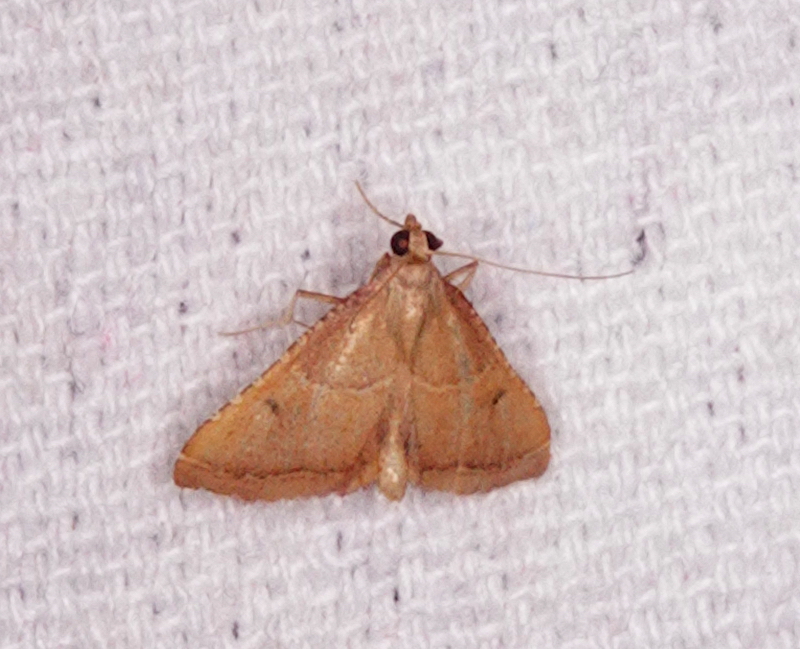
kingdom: Animalia
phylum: Arthropoda
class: Insecta
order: Lepidoptera
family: Pyralidae
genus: Endotricha
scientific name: Endotricha flammealis
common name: Rosy tabby
